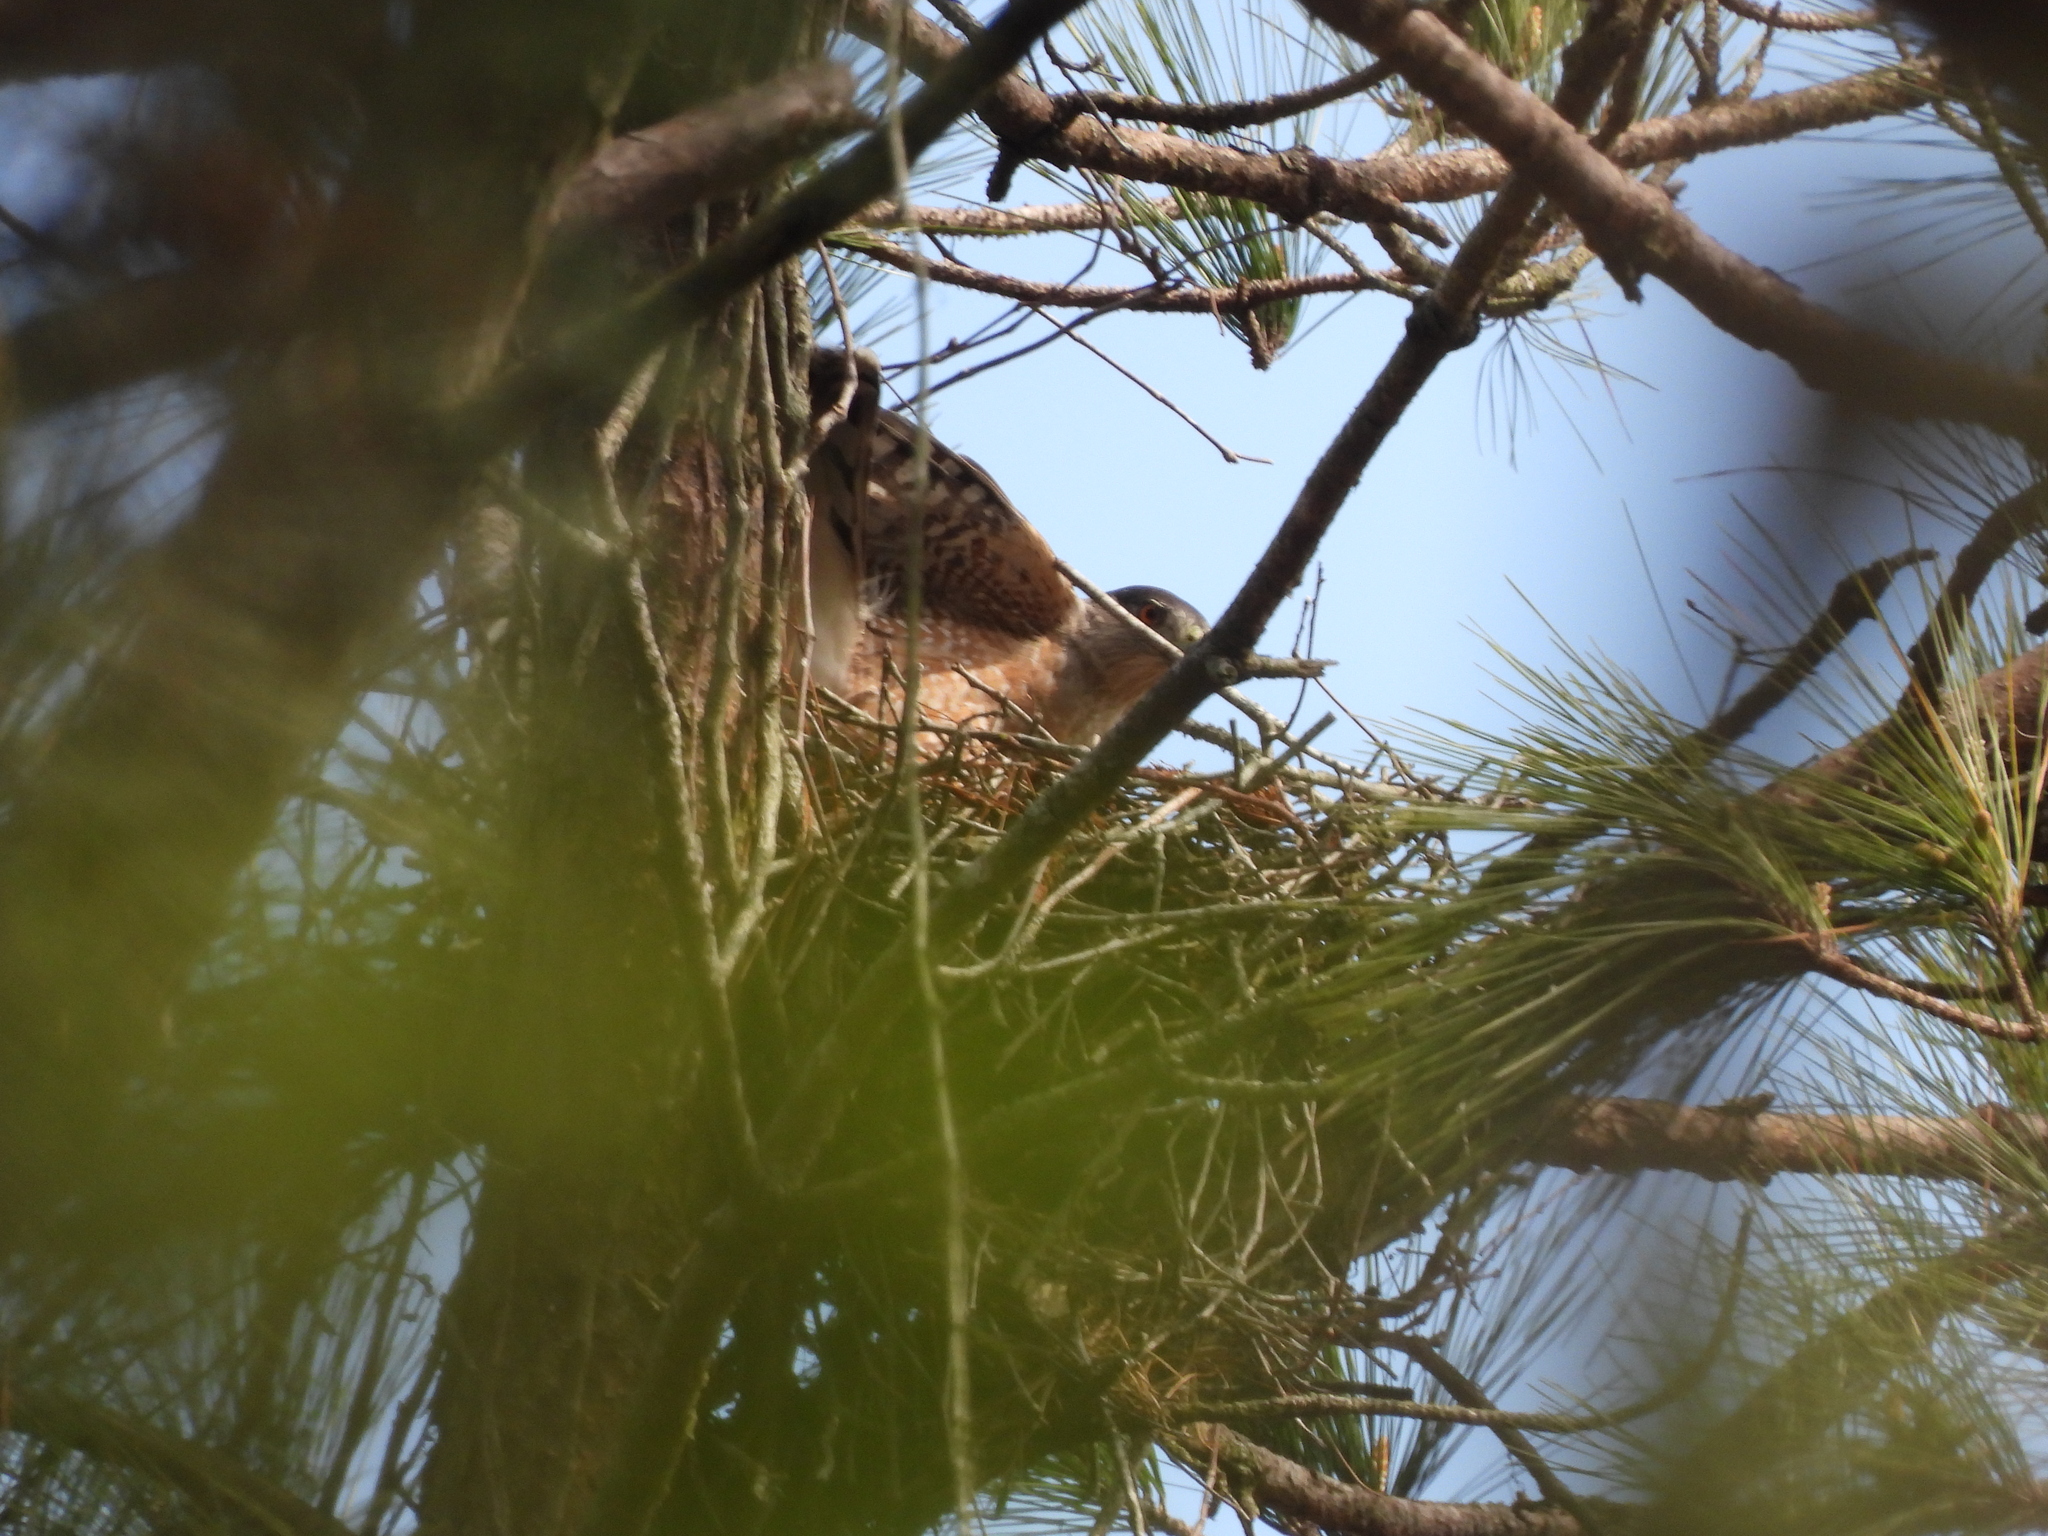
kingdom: Animalia
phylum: Chordata
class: Aves
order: Accipitriformes
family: Accipitridae
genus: Accipiter
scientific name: Accipiter cooperii
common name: Cooper's hawk
